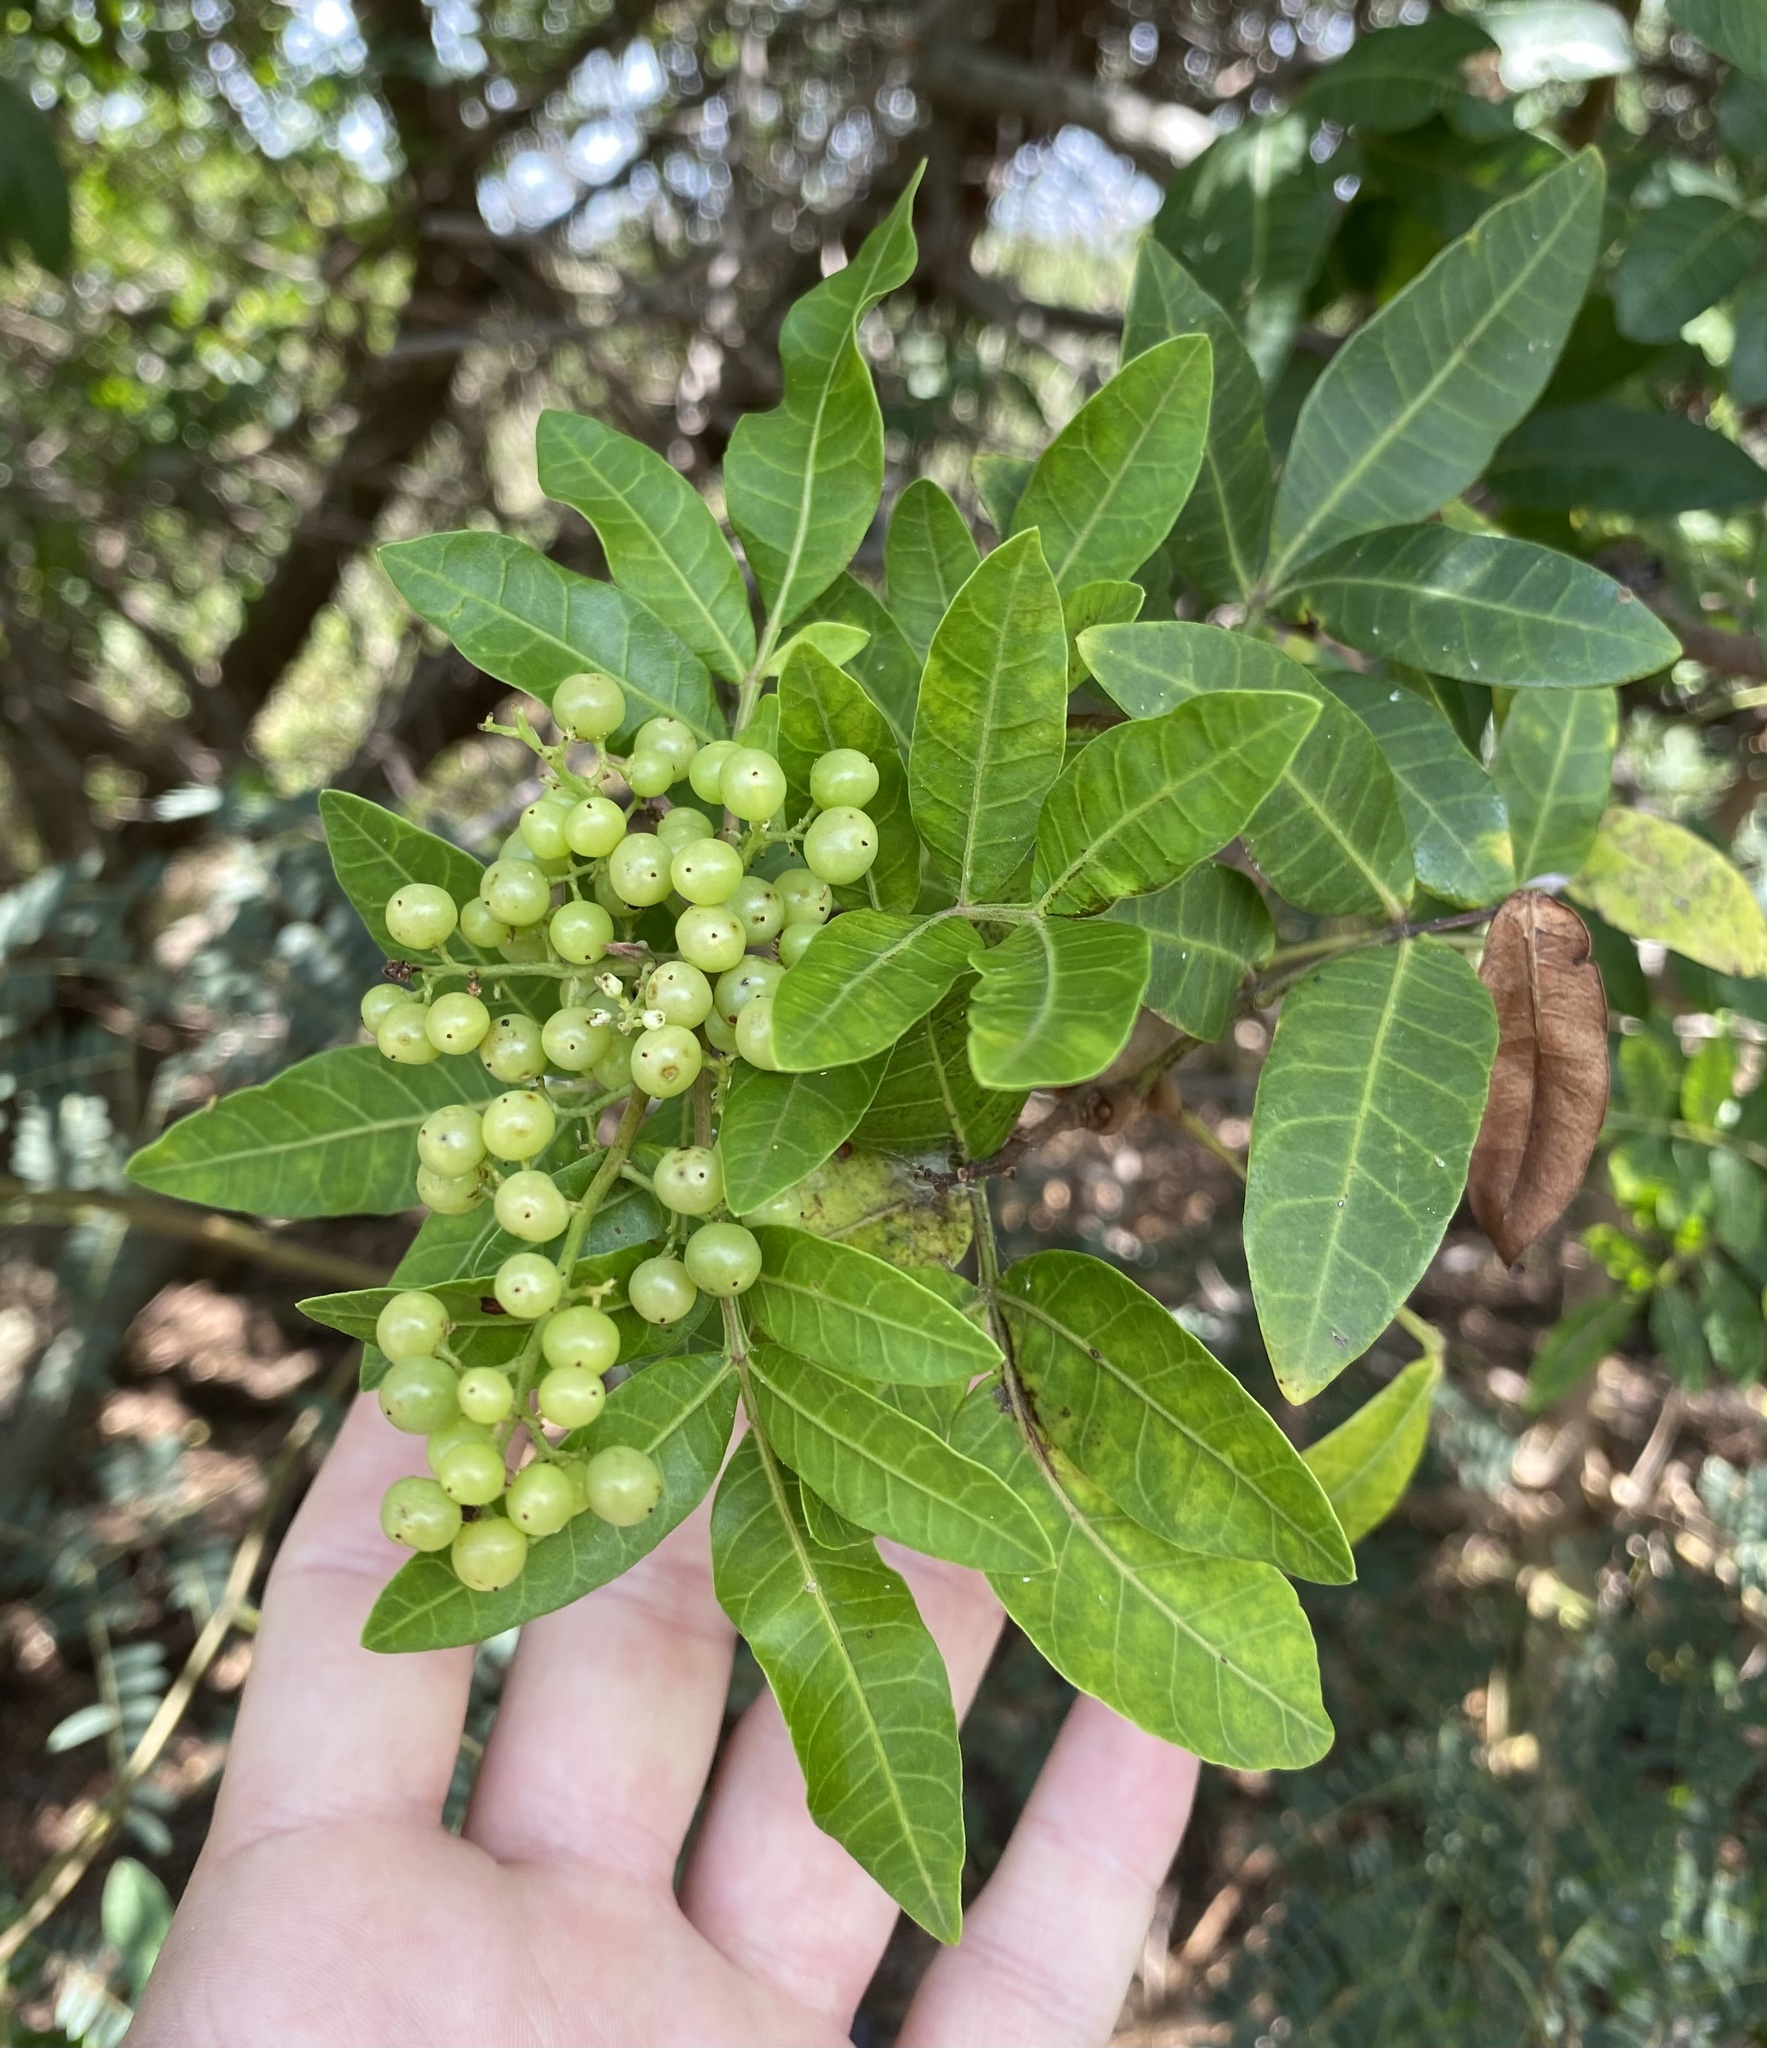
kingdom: Plantae
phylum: Tracheophyta
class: Magnoliopsida
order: Sapindales
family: Anacardiaceae
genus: Schinus
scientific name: Schinus terebinthifolia
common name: Brazilian peppertree
